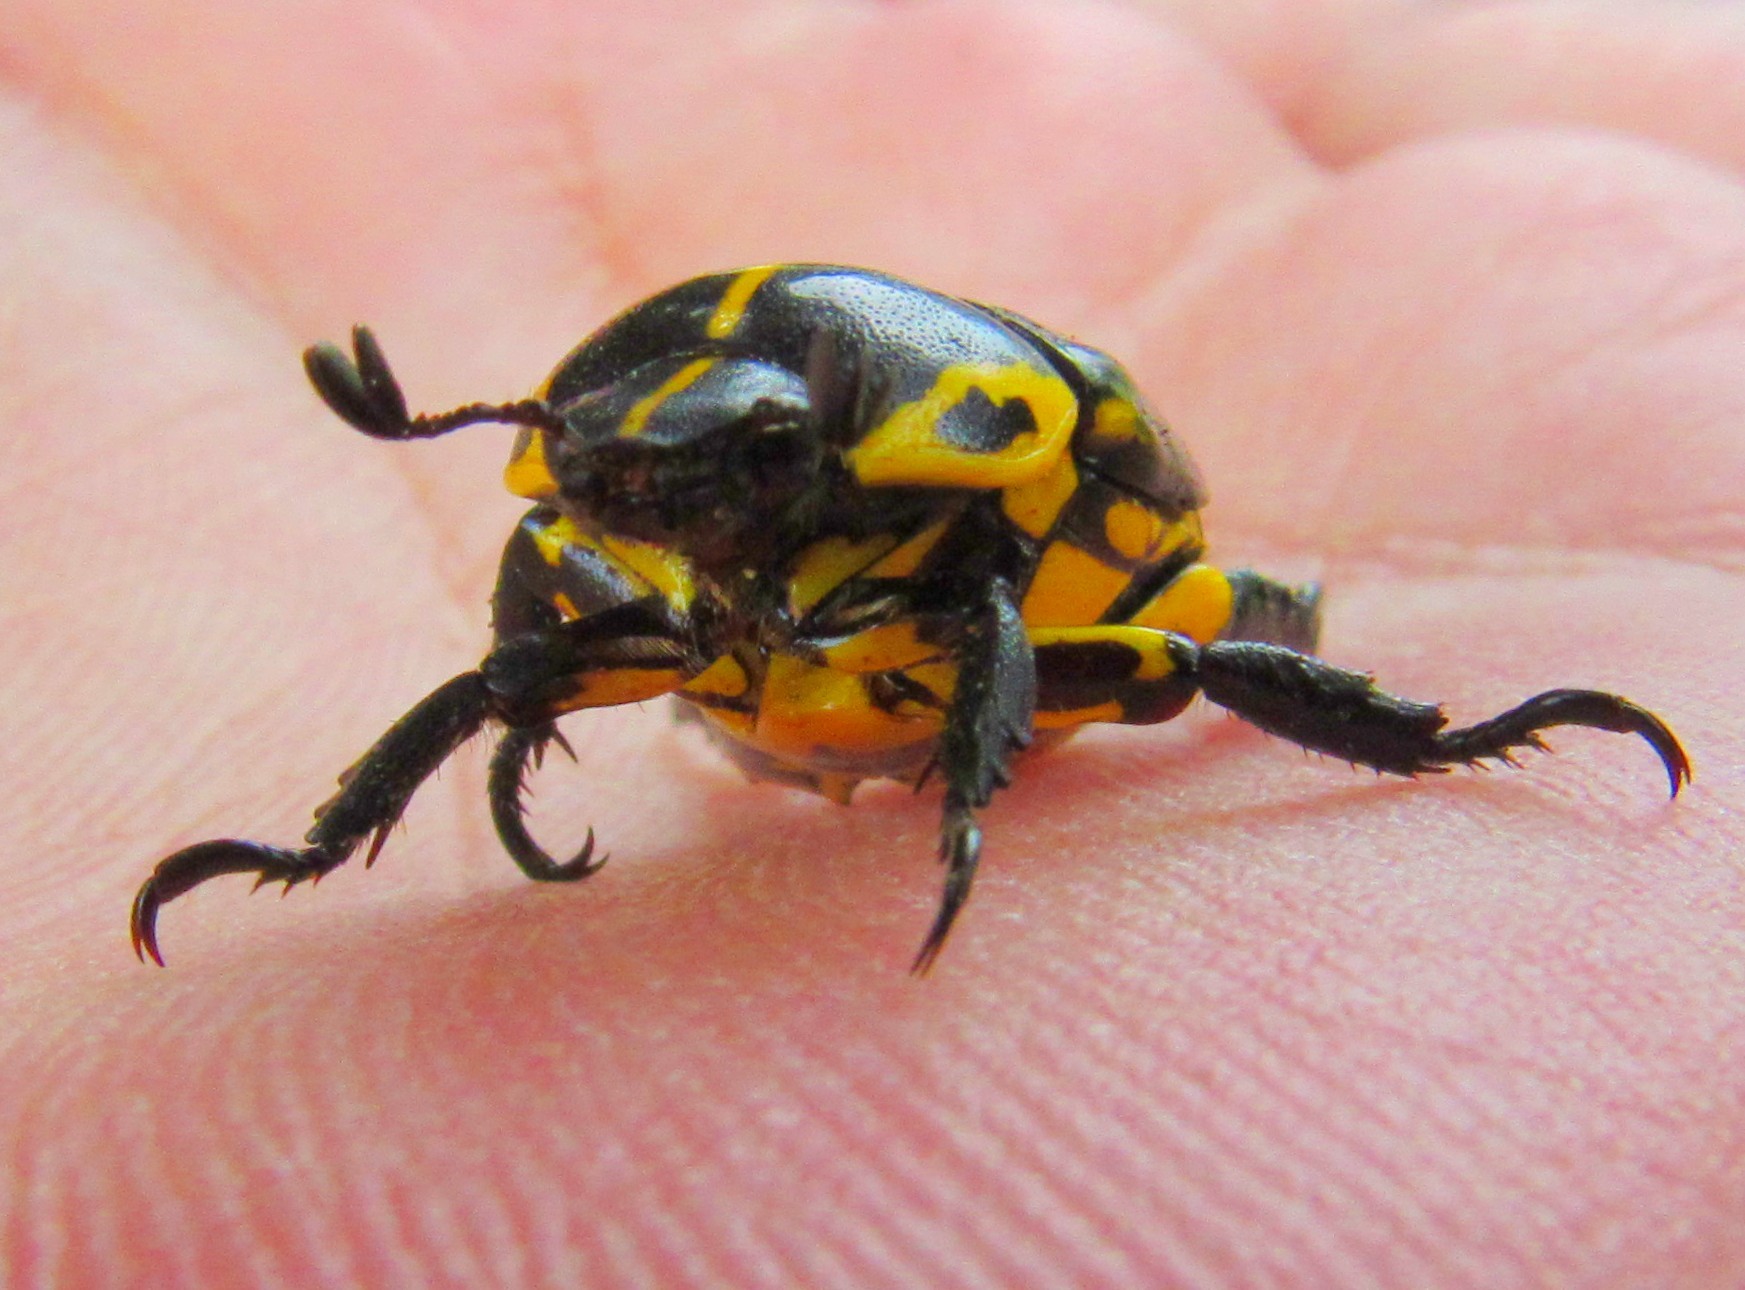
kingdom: Animalia
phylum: Arthropoda
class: Insecta
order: Coleoptera
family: Scarabaeidae
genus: Rutela
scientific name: Rutela lineola
